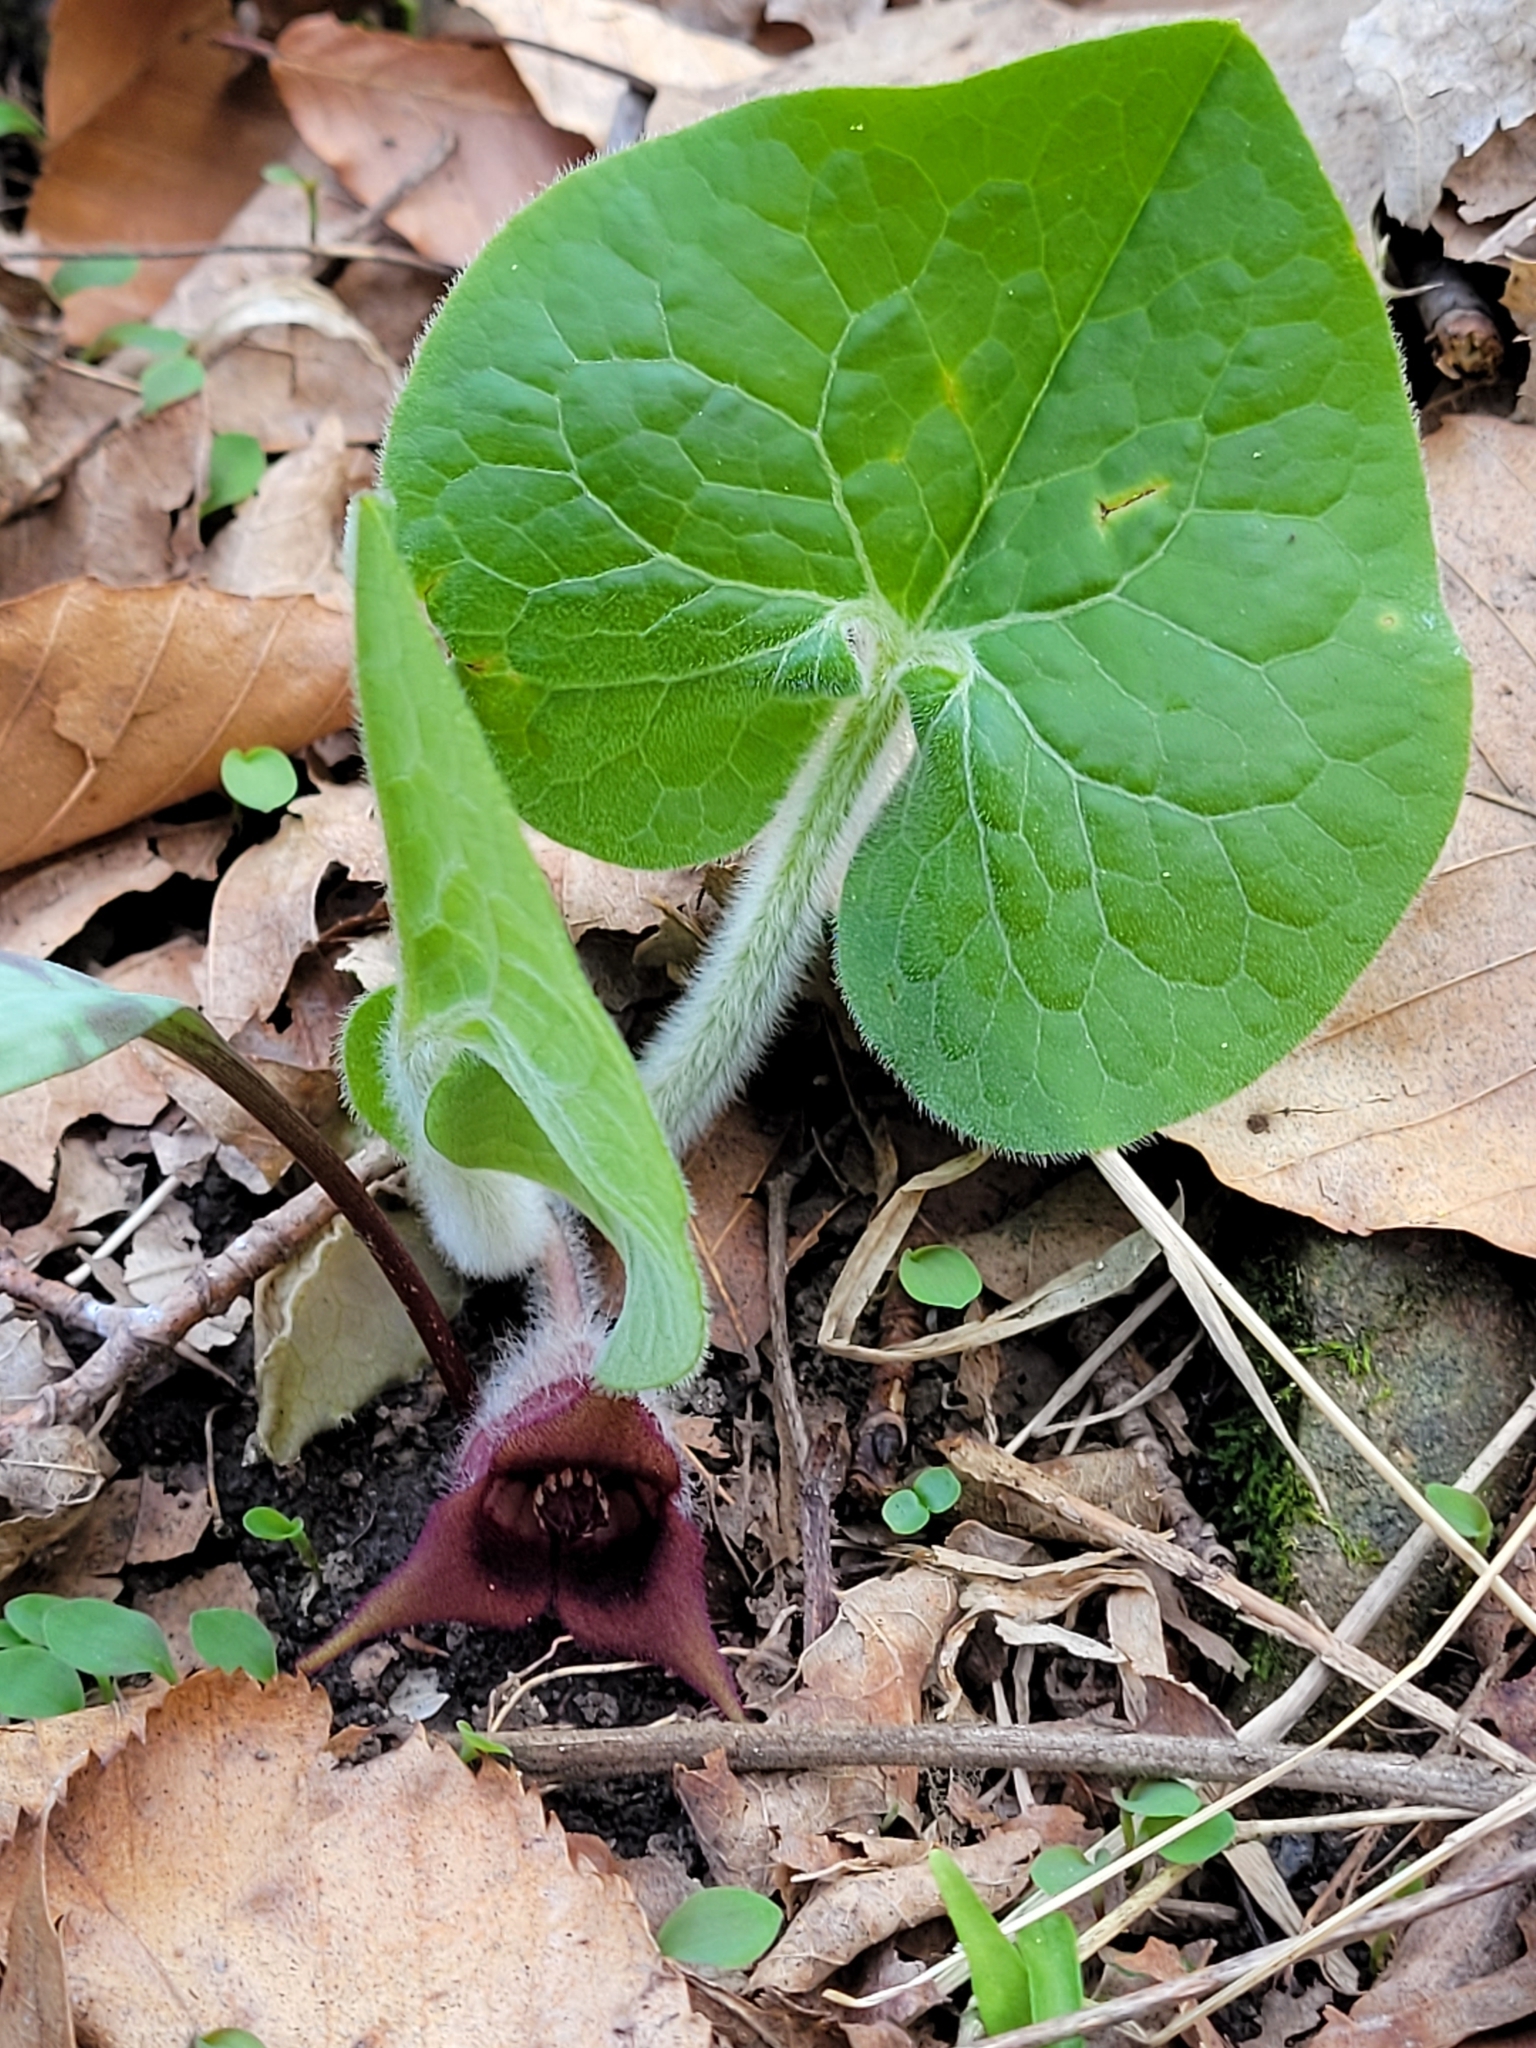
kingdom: Plantae
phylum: Tracheophyta
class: Magnoliopsida
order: Piperales
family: Aristolochiaceae
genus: Asarum
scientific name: Asarum canadense
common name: Wild ginger
